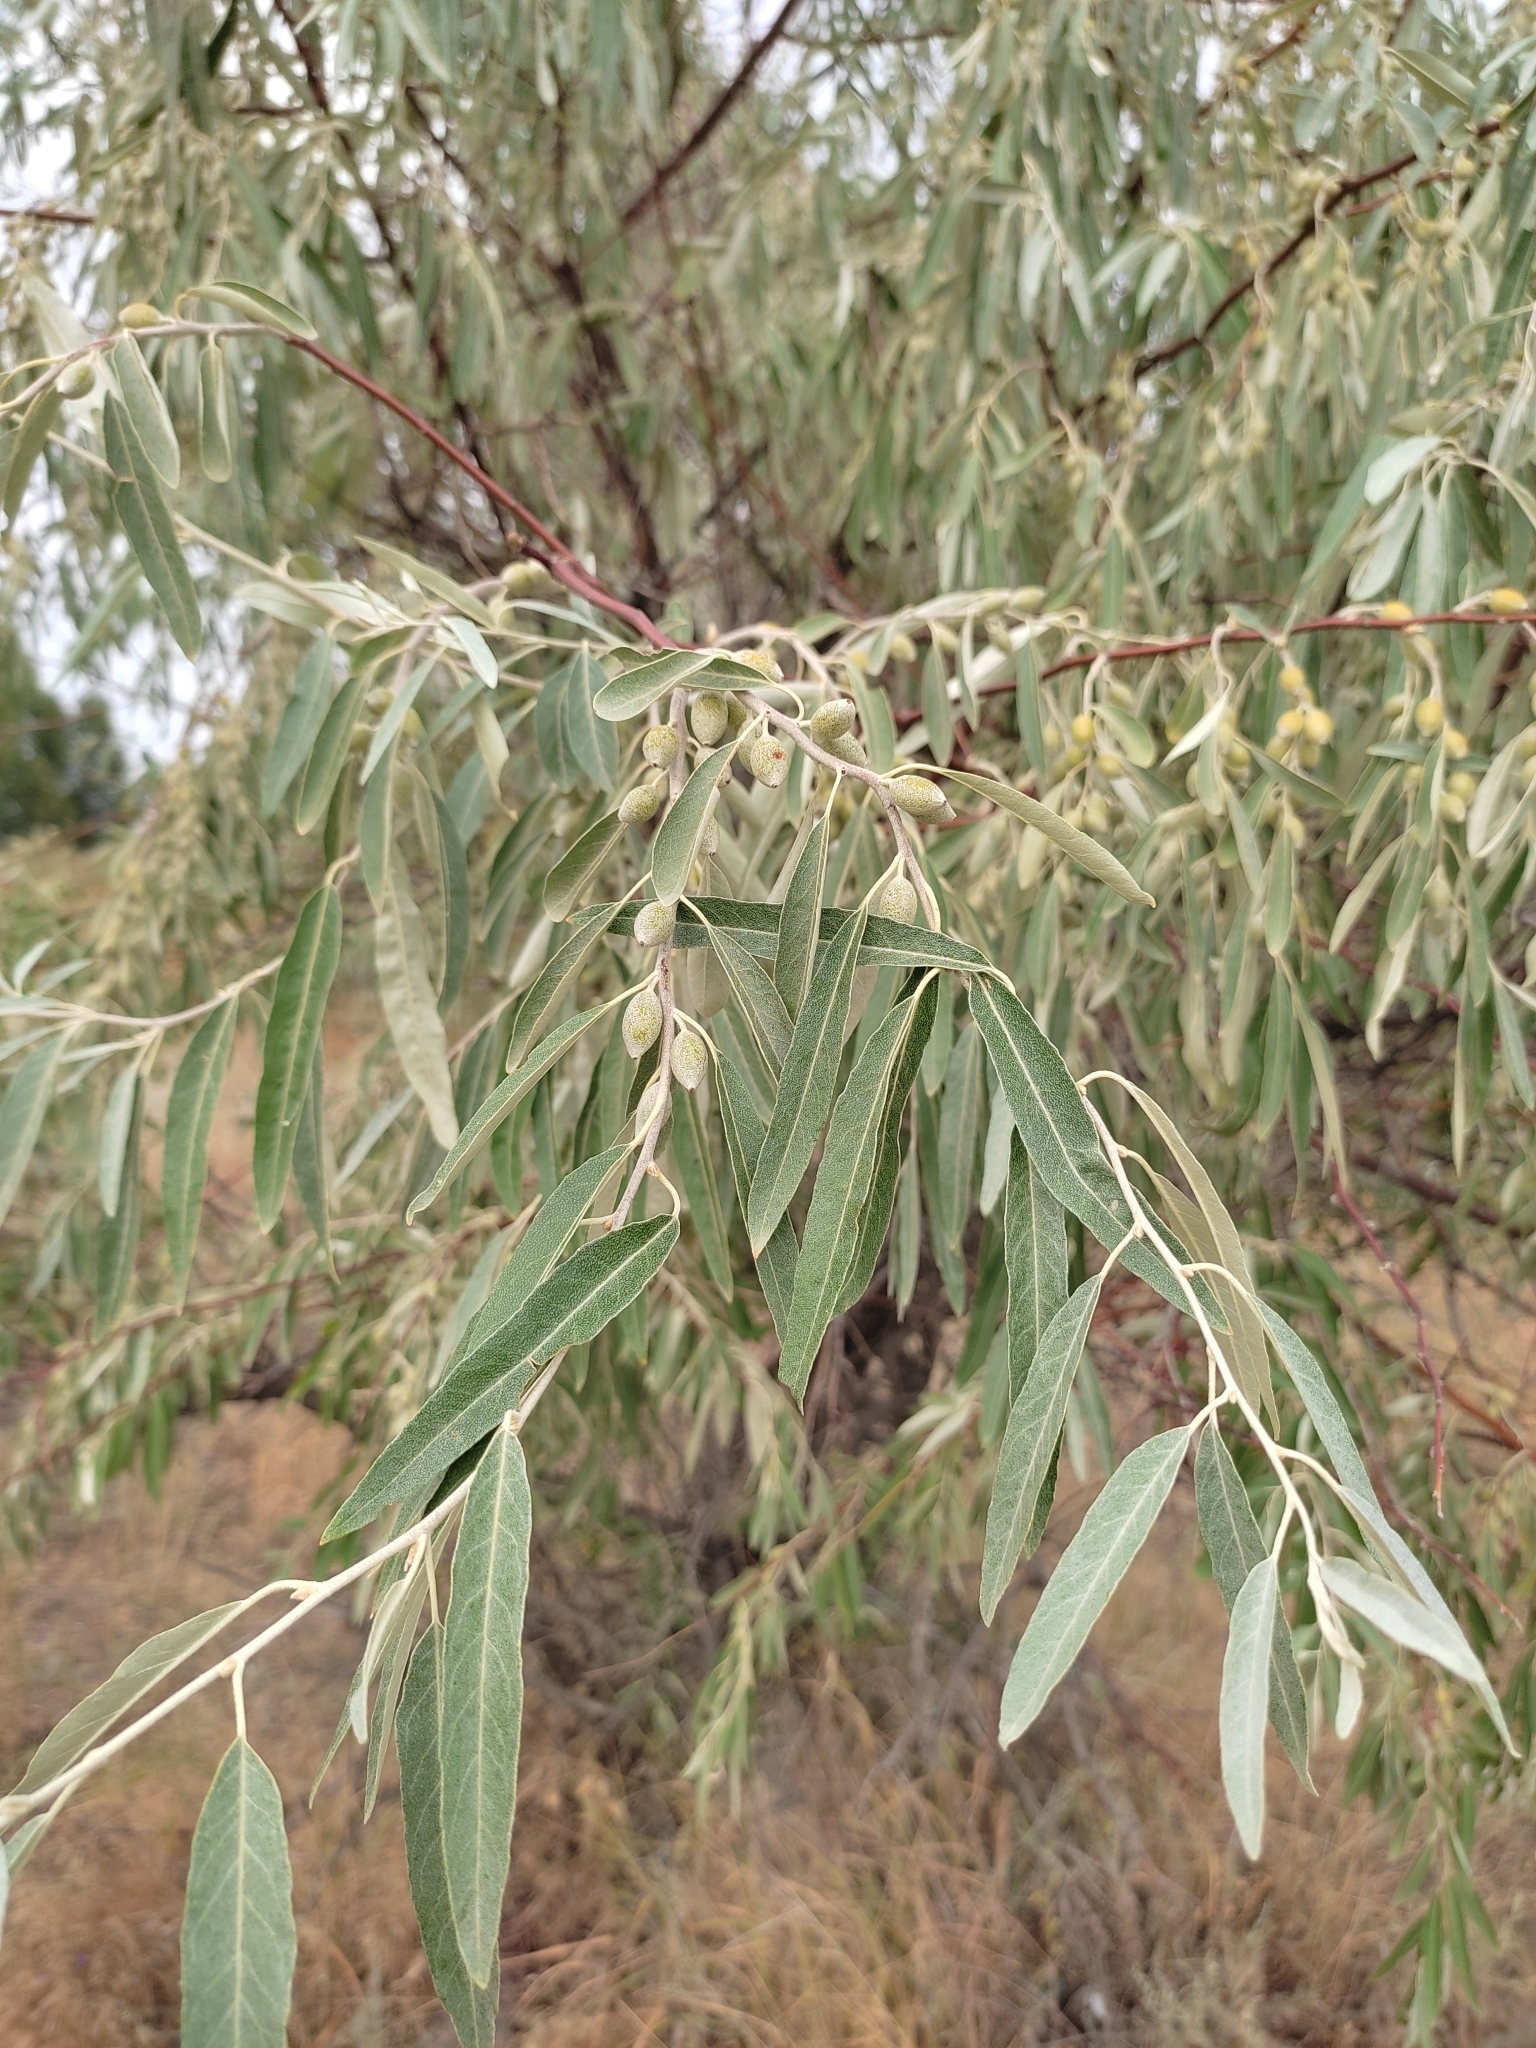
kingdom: Plantae
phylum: Tracheophyta
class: Magnoliopsida
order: Rosales
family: Elaeagnaceae
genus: Elaeagnus
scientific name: Elaeagnus angustifolia
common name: Russian olive
